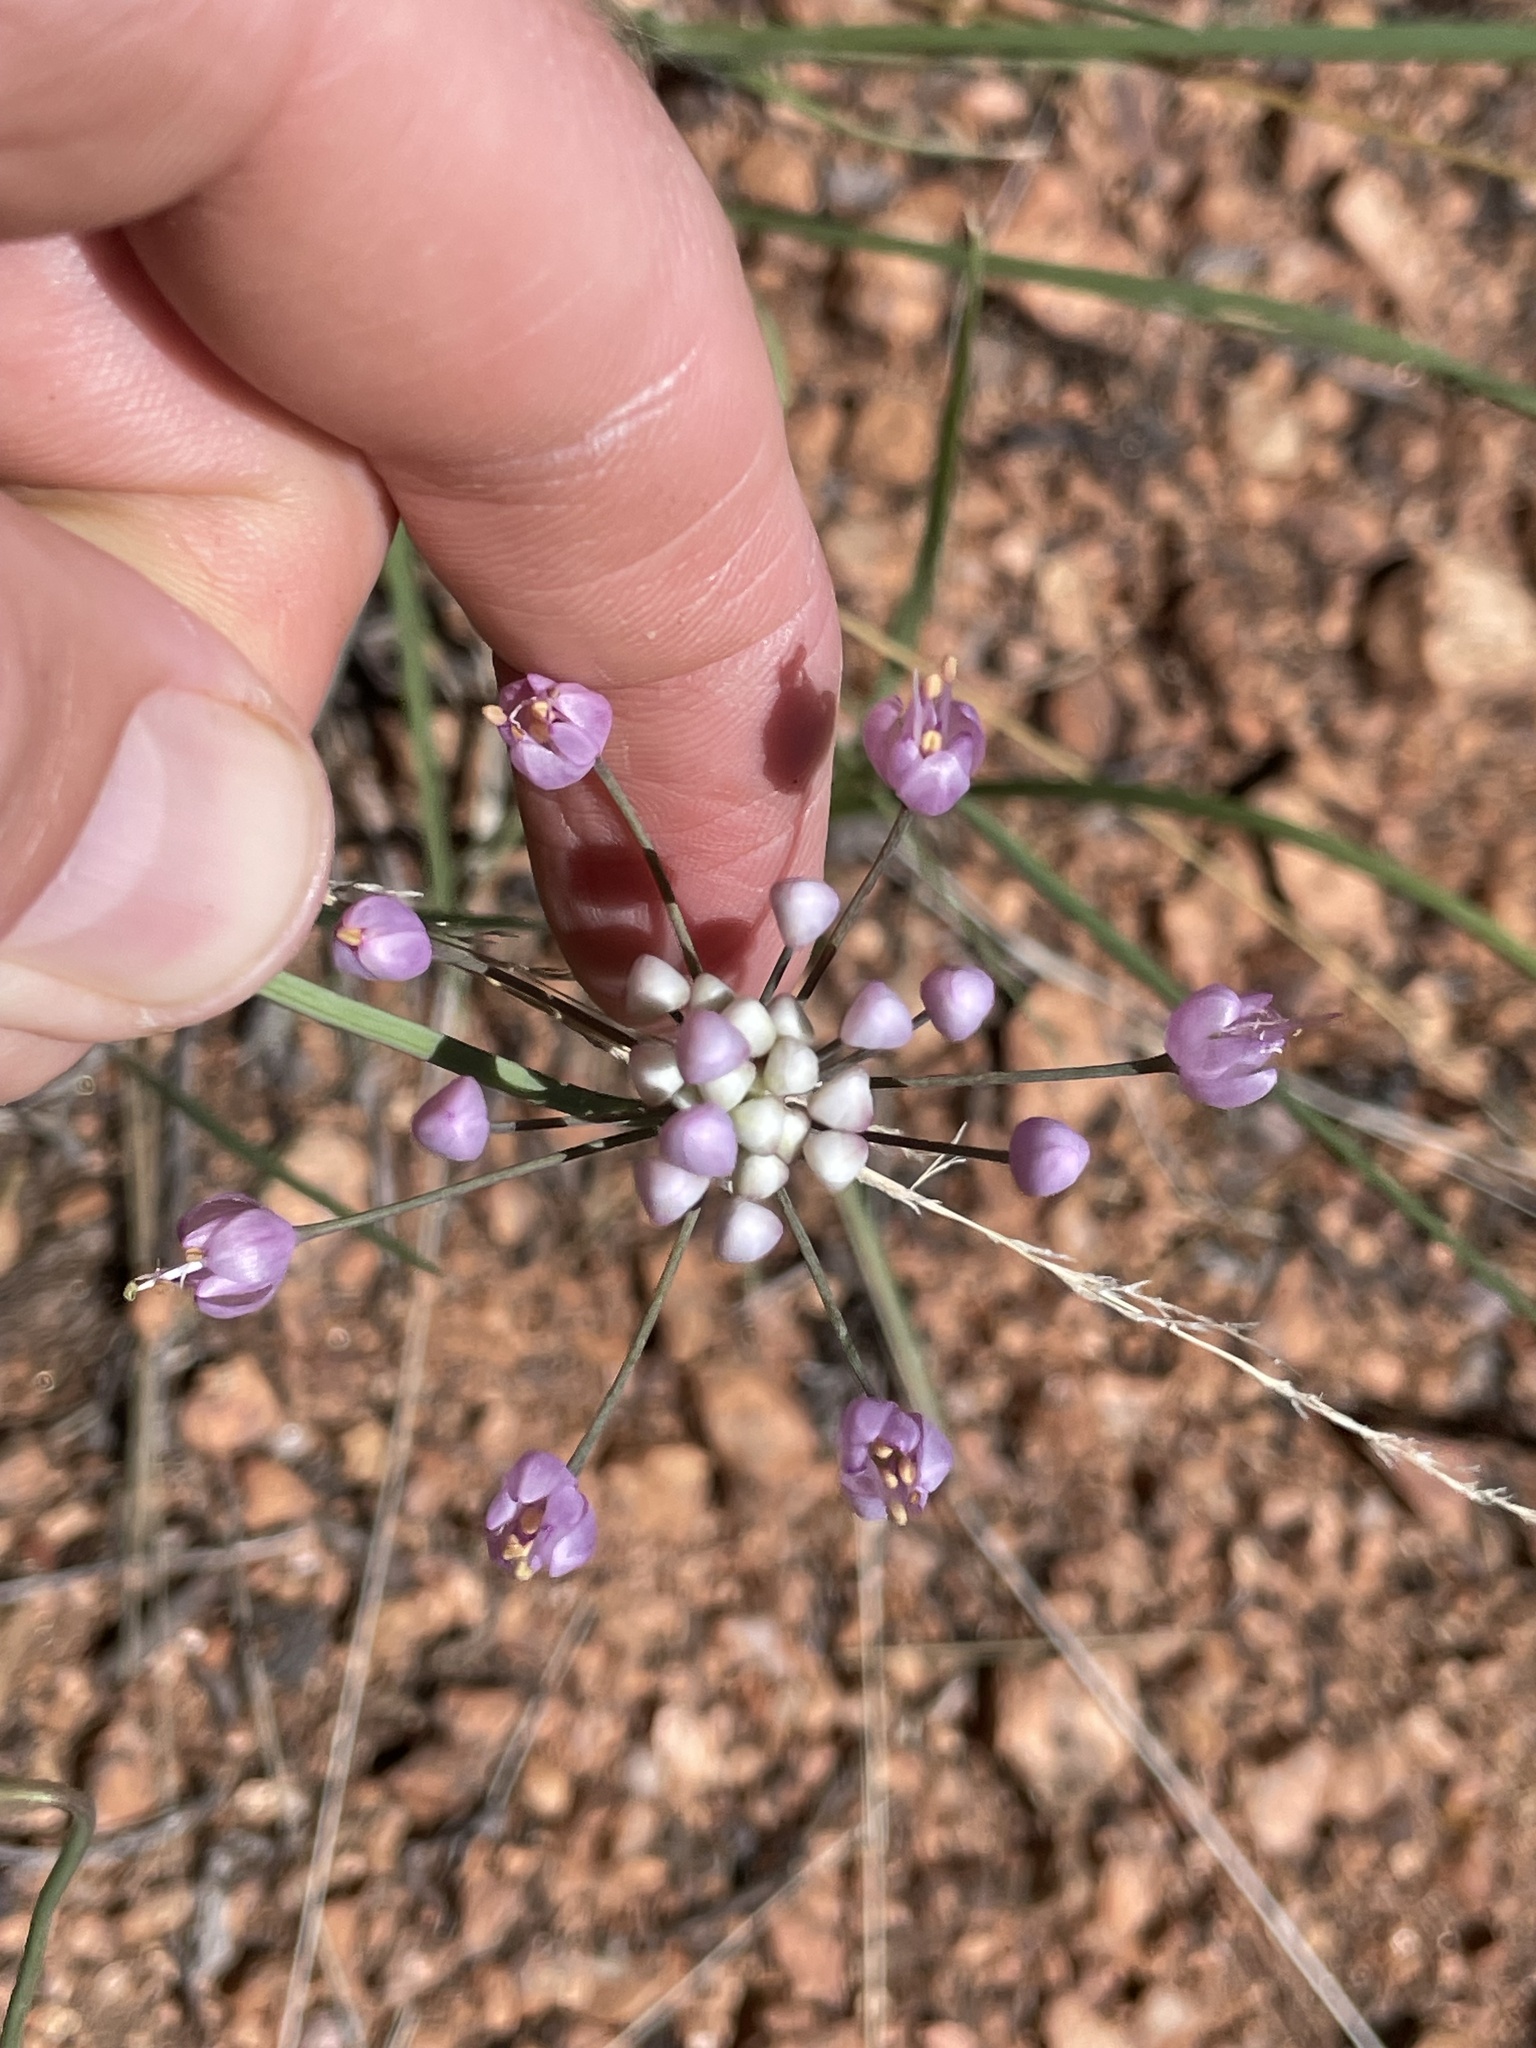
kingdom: Plantae
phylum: Tracheophyta
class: Liliopsida
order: Asparagales
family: Amaryllidaceae
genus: Allium
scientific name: Allium cernuum
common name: Nodding onion
